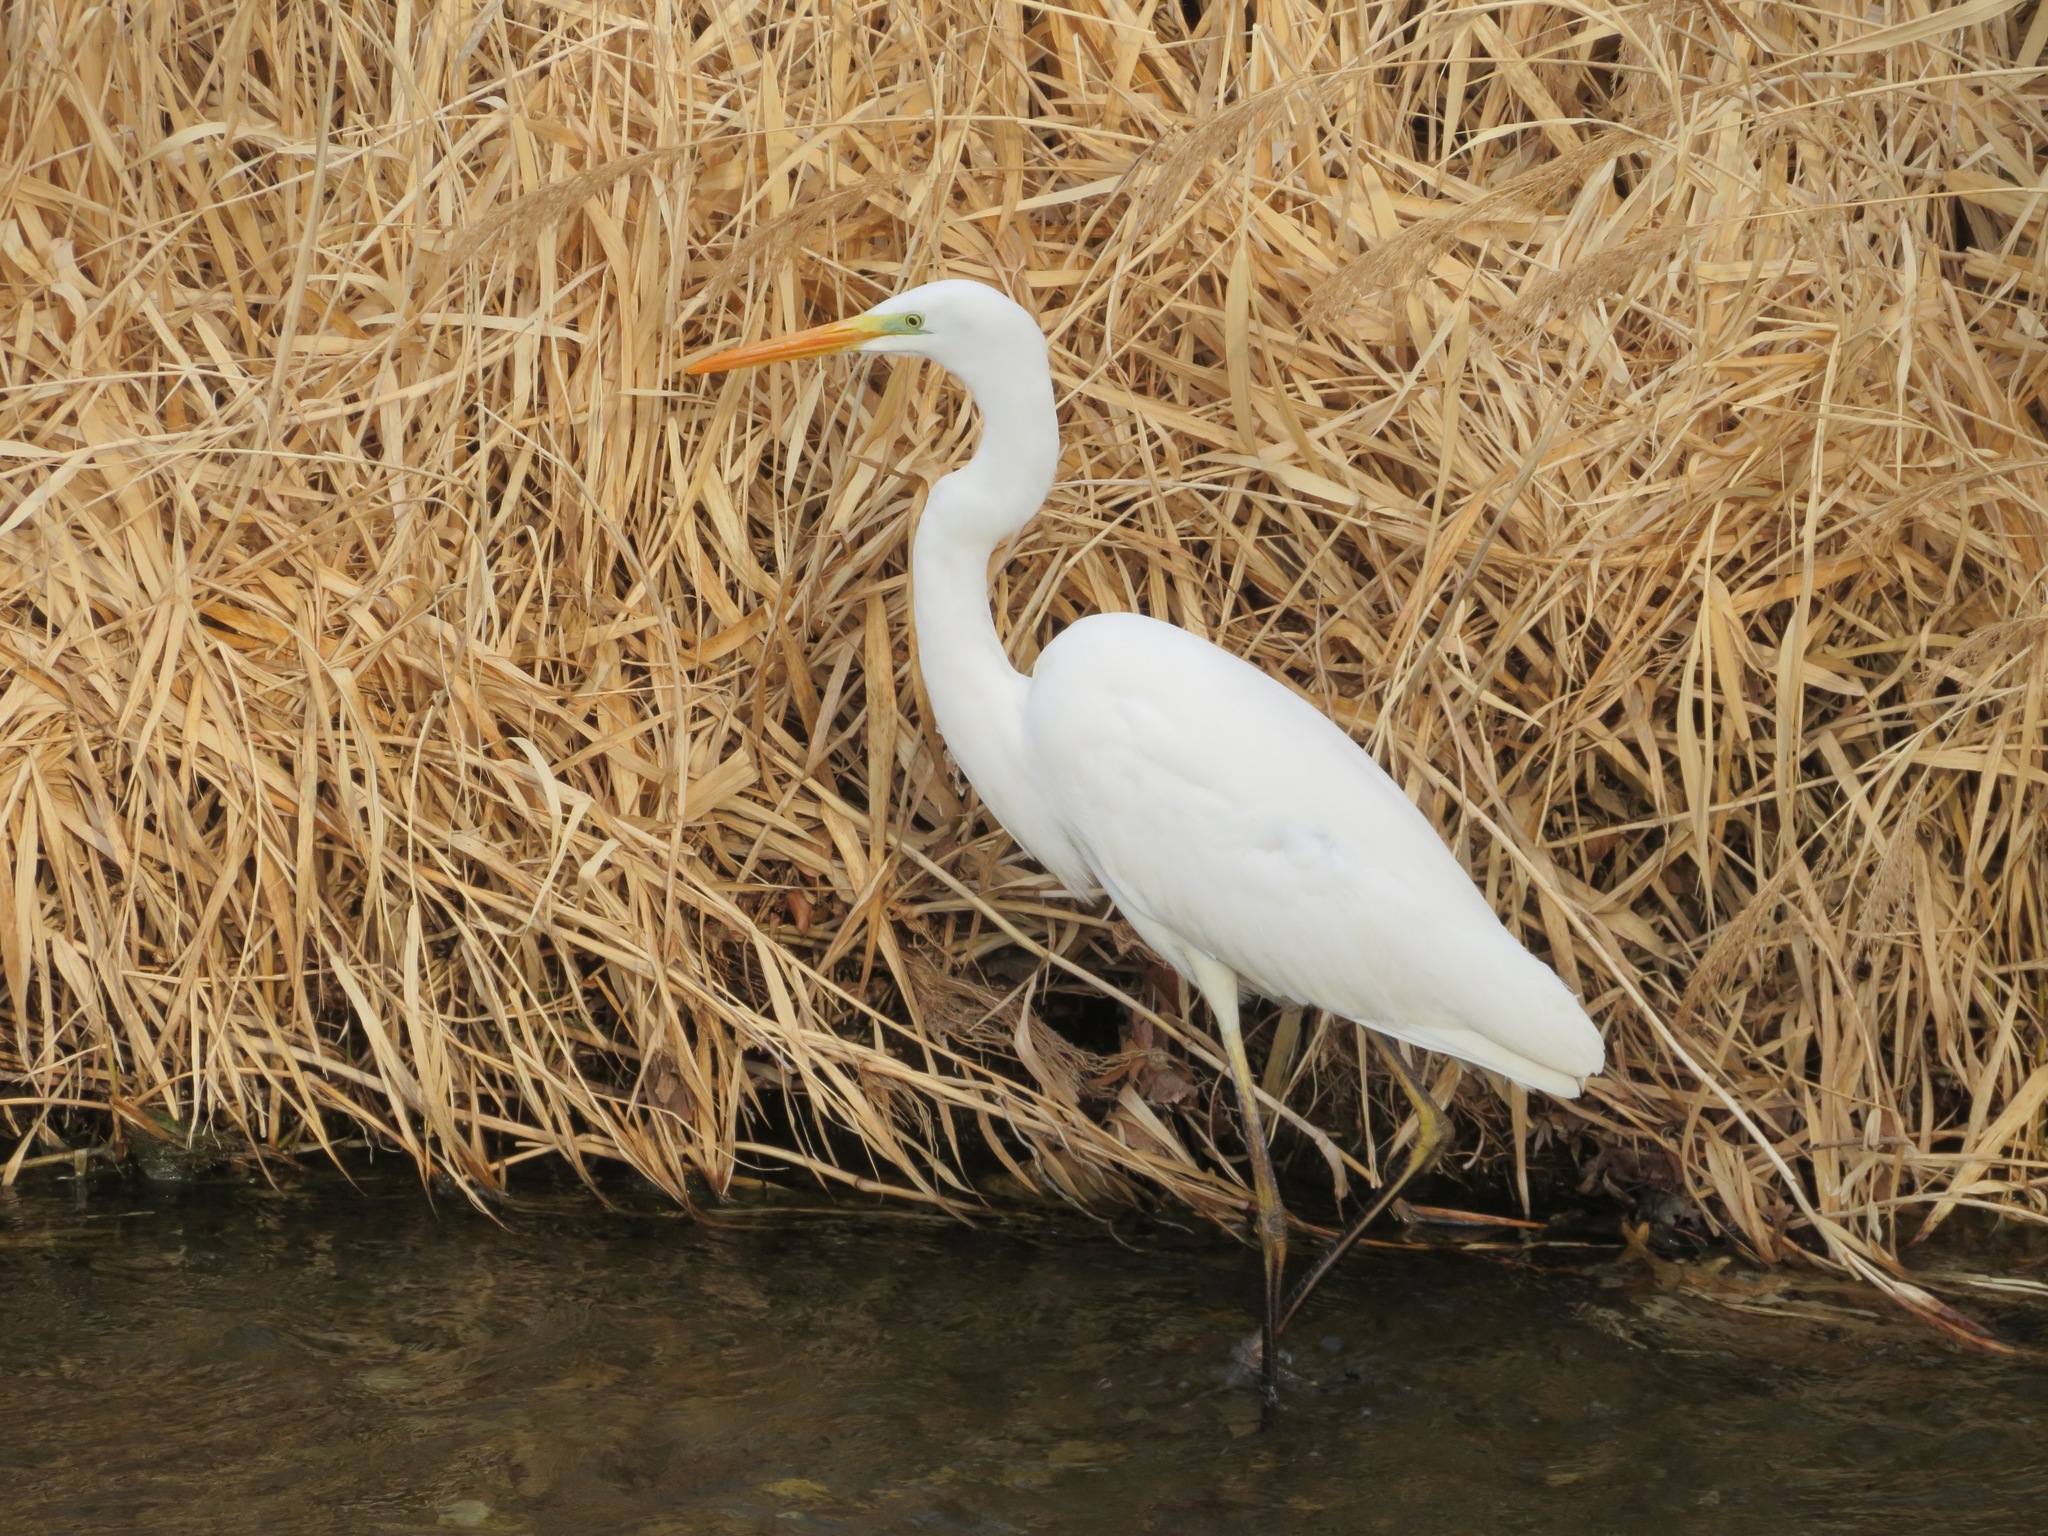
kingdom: Animalia
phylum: Chordata
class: Aves
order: Pelecaniformes
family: Ardeidae
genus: Ardea
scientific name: Ardea alba
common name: Great egret
